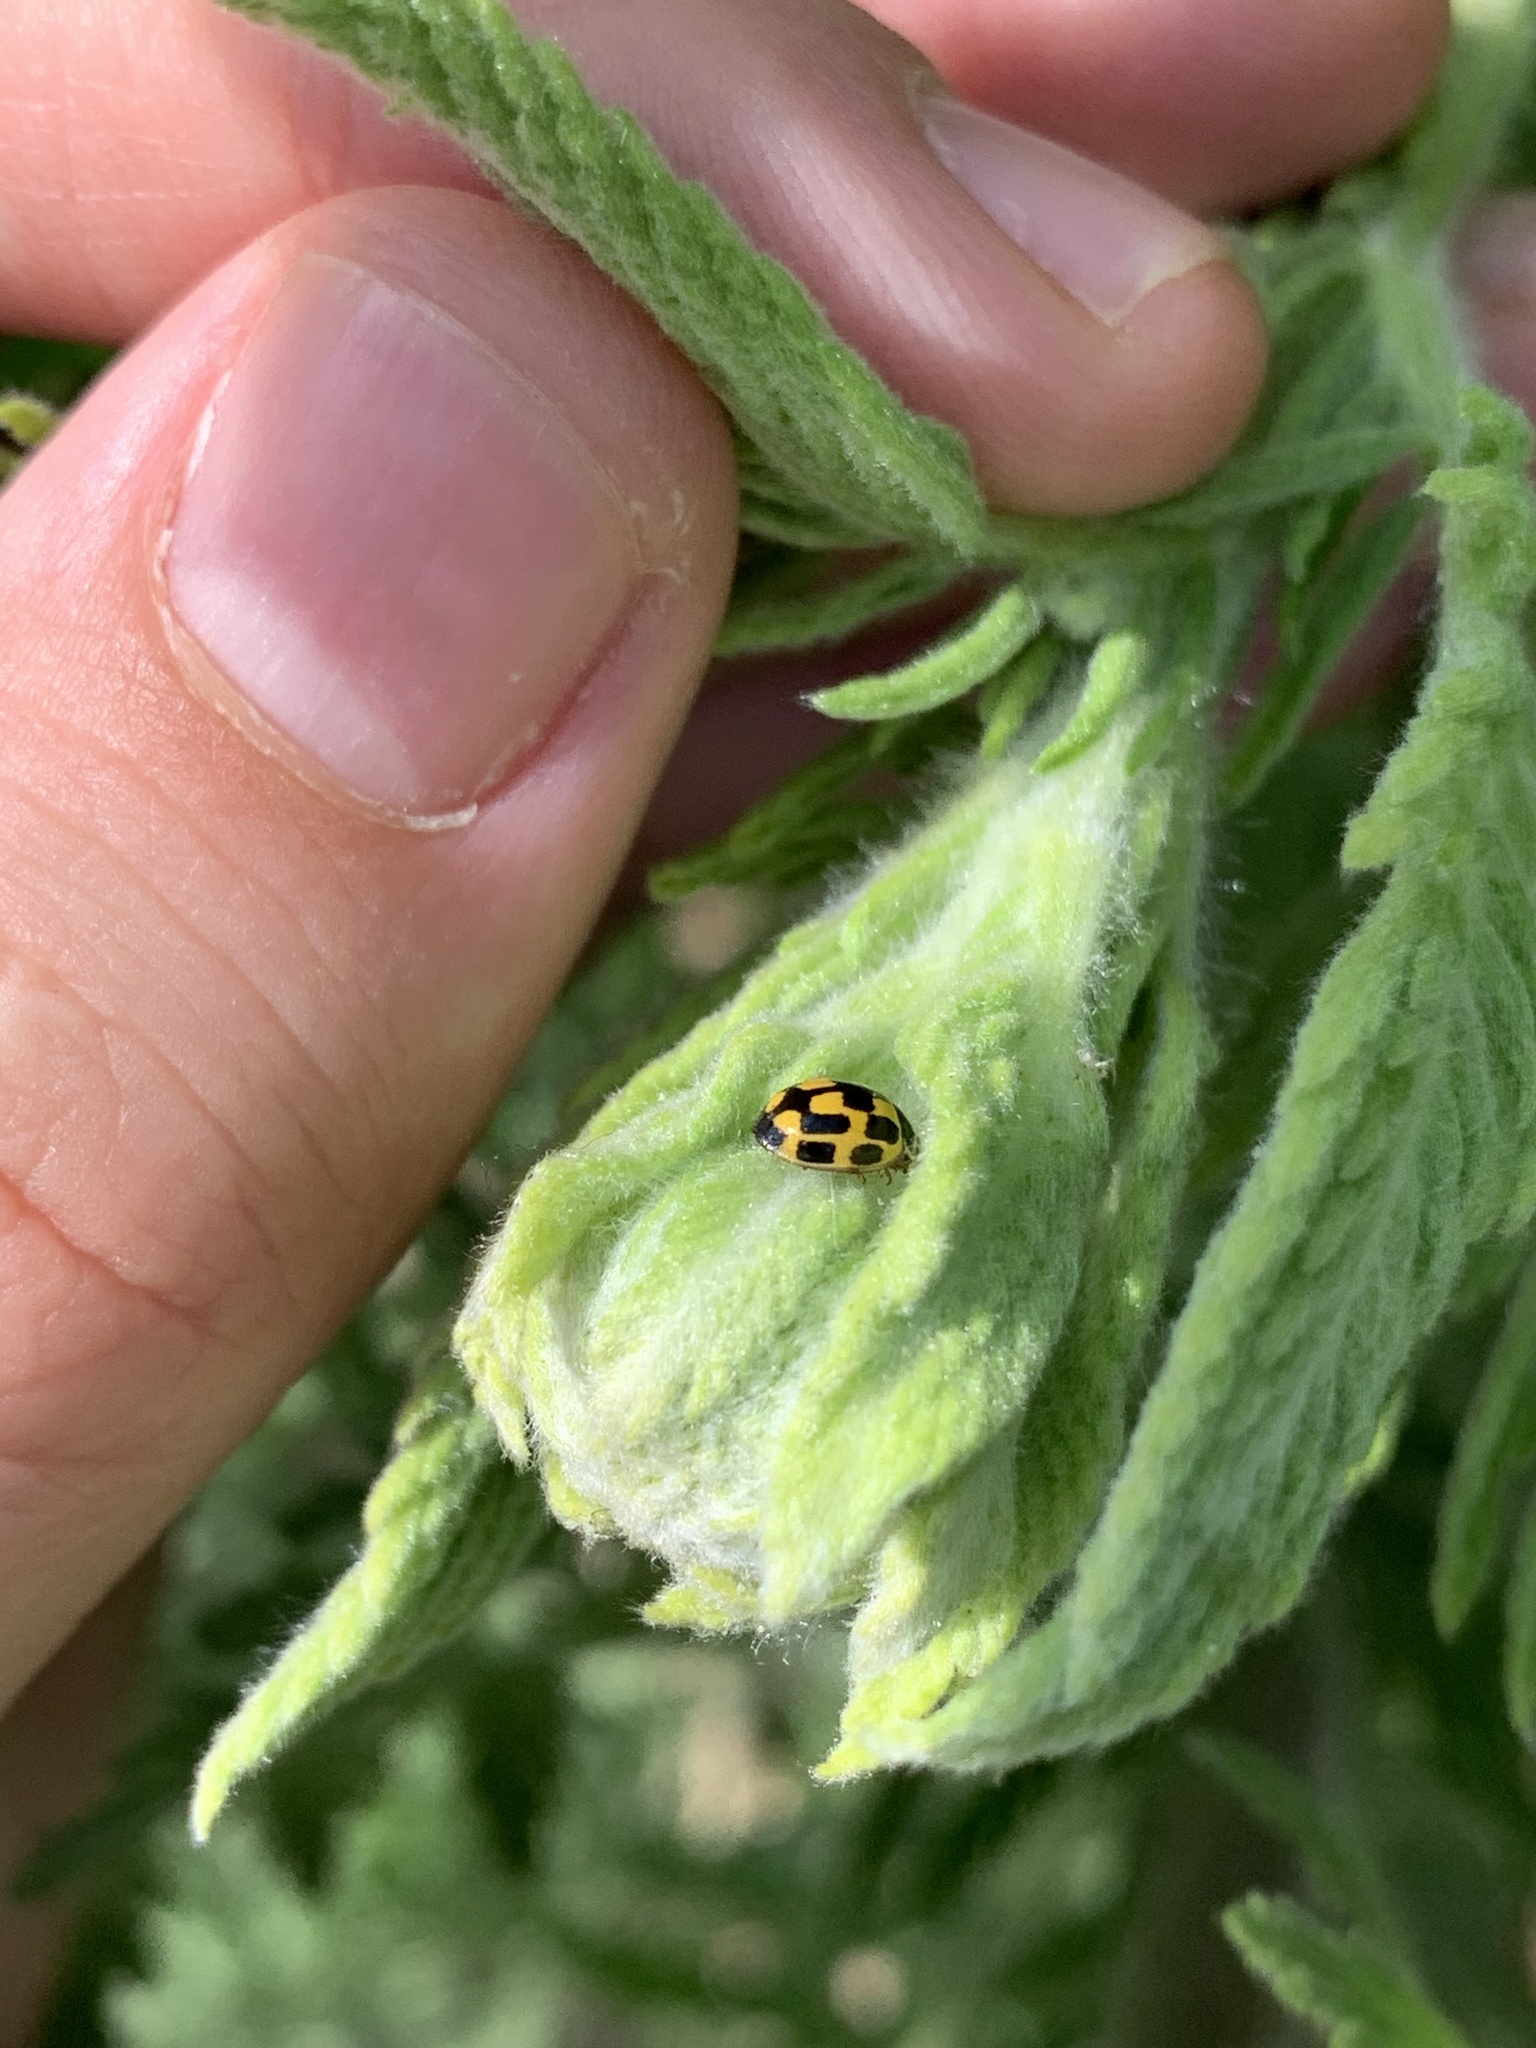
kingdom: Animalia
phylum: Arthropoda
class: Insecta
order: Coleoptera
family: Coccinellidae
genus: Propylaea
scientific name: Propylaea quatuordecimpunctata
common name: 14-spotted ladybird beetle
